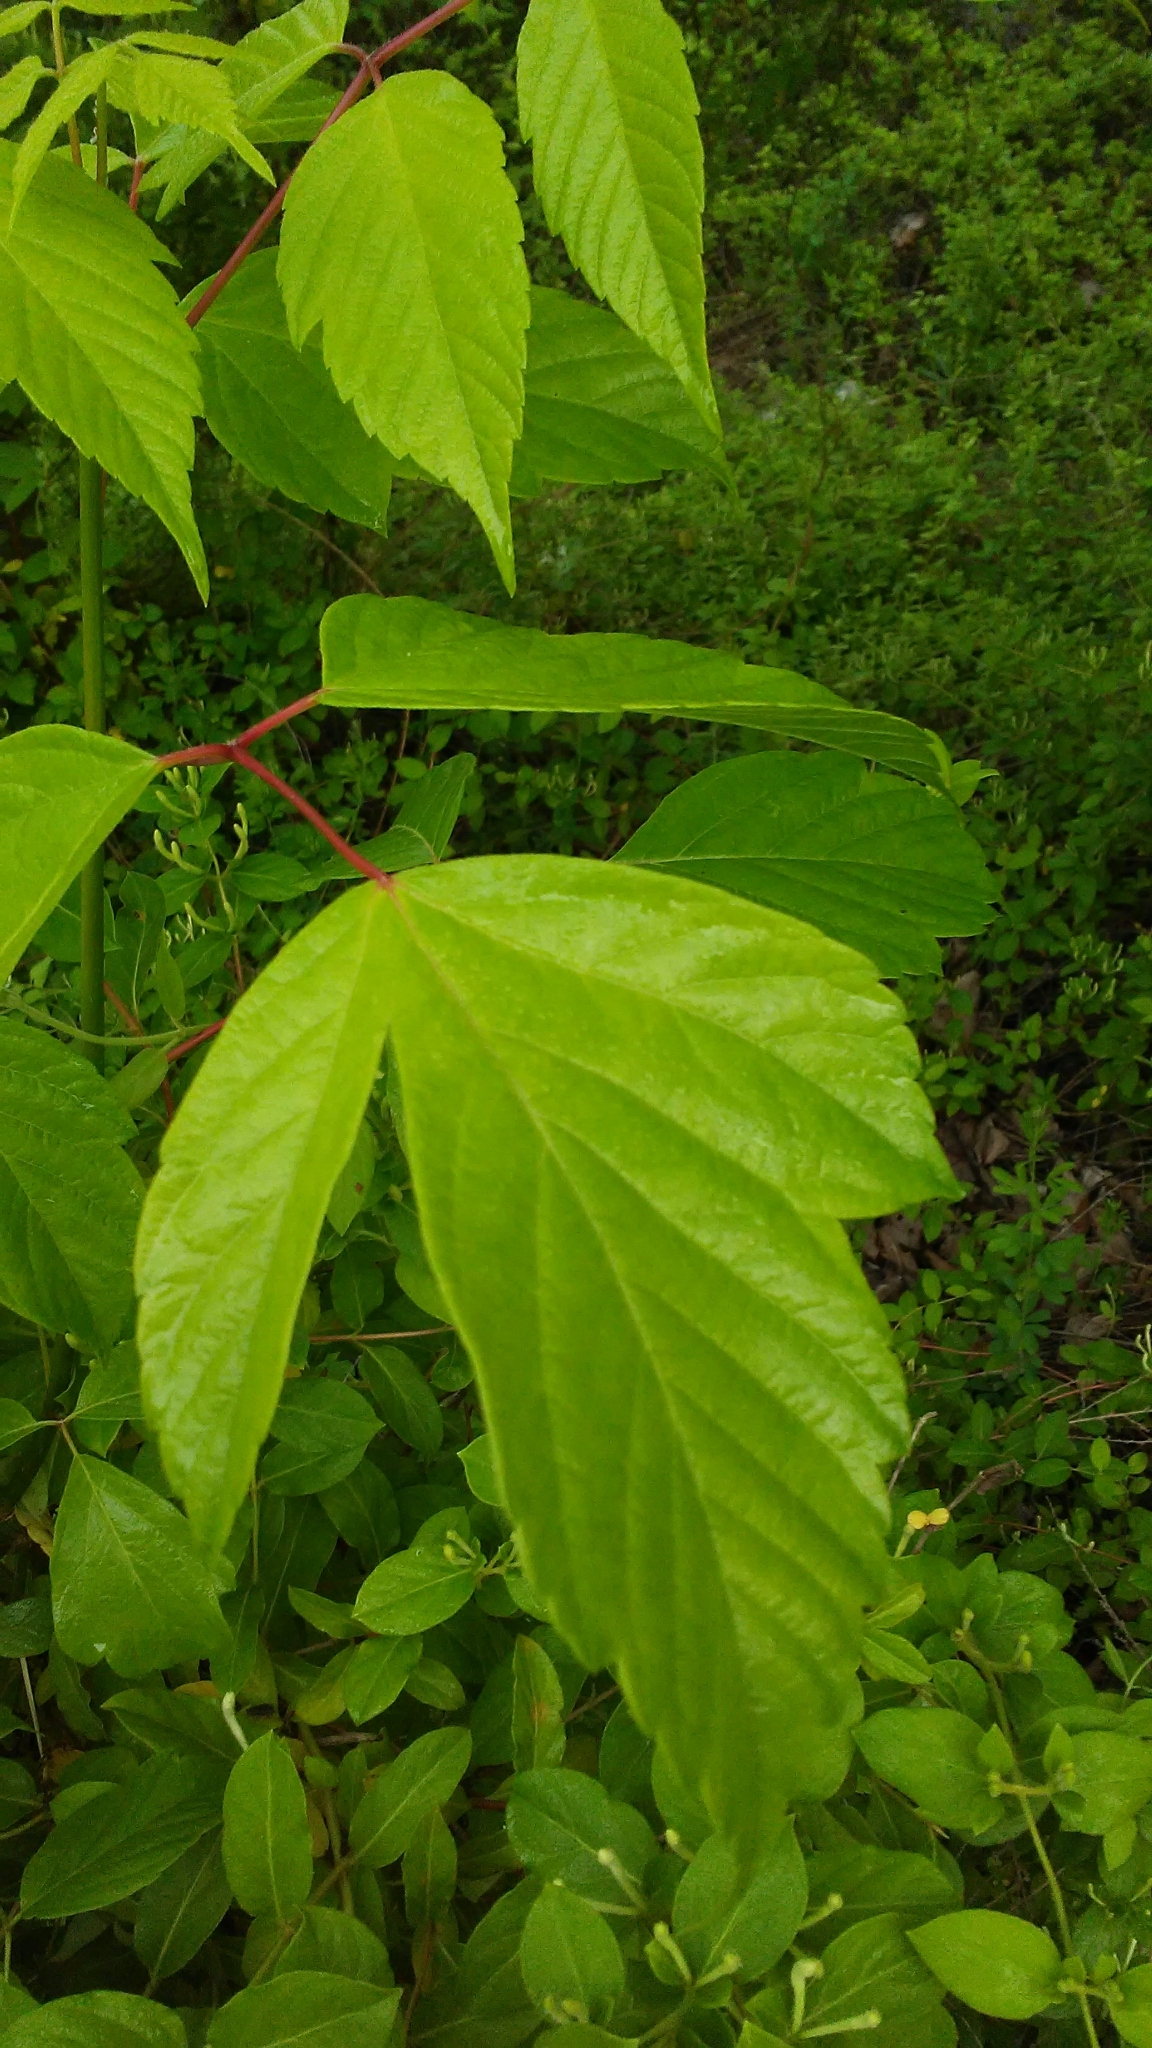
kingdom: Plantae
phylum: Tracheophyta
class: Magnoliopsida
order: Sapindales
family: Sapindaceae
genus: Acer
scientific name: Acer negundo
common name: Ashleaf maple
